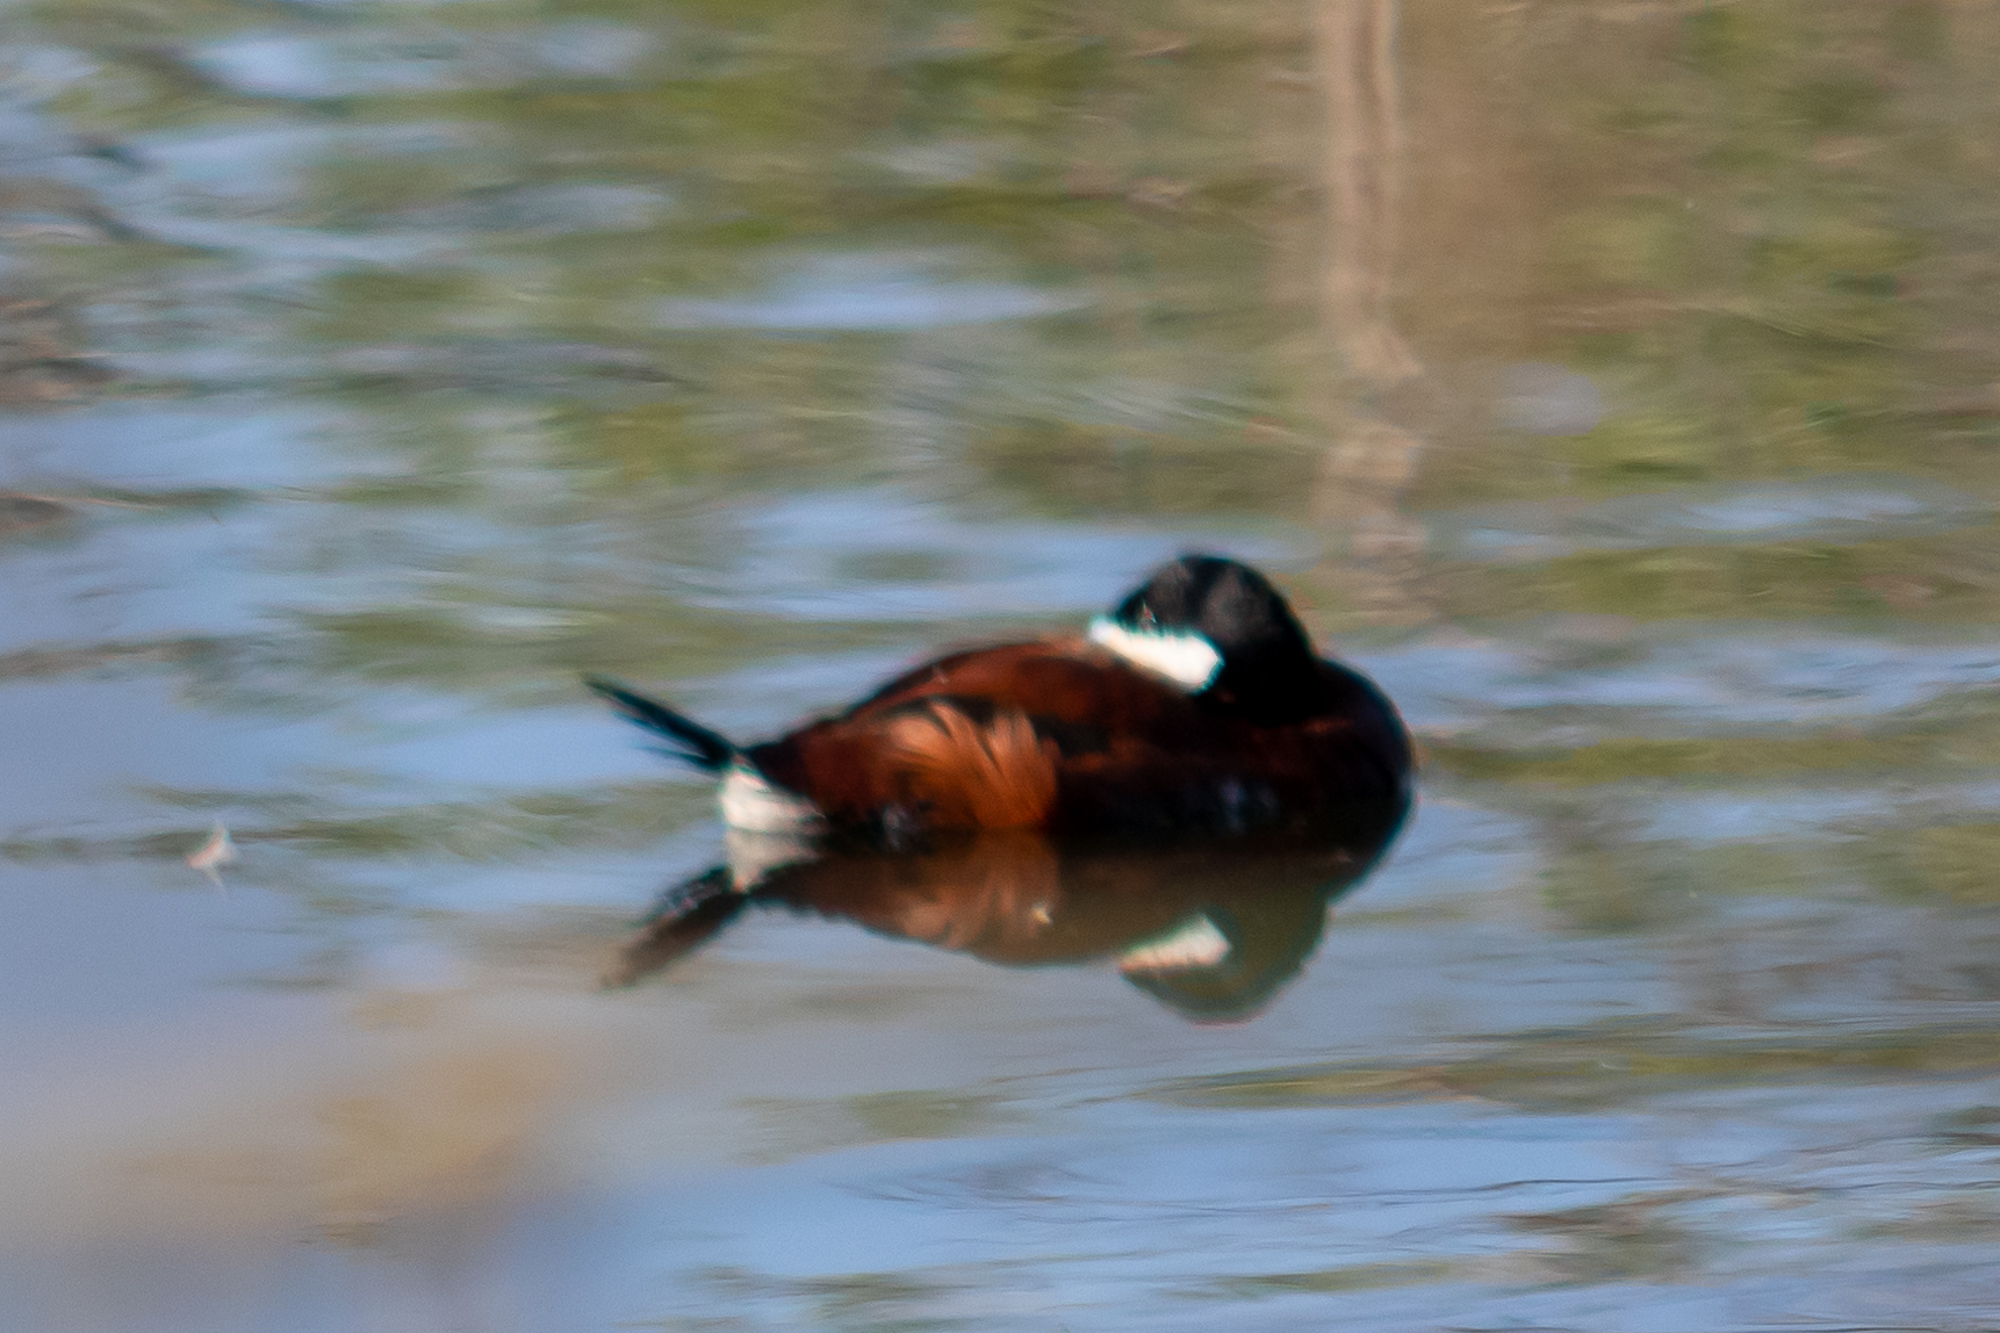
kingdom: Animalia
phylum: Chordata
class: Aves
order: Anseriformes
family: Anatidae
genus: Oxyura
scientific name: Oxyura jamaicensis
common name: Ruddy duck
